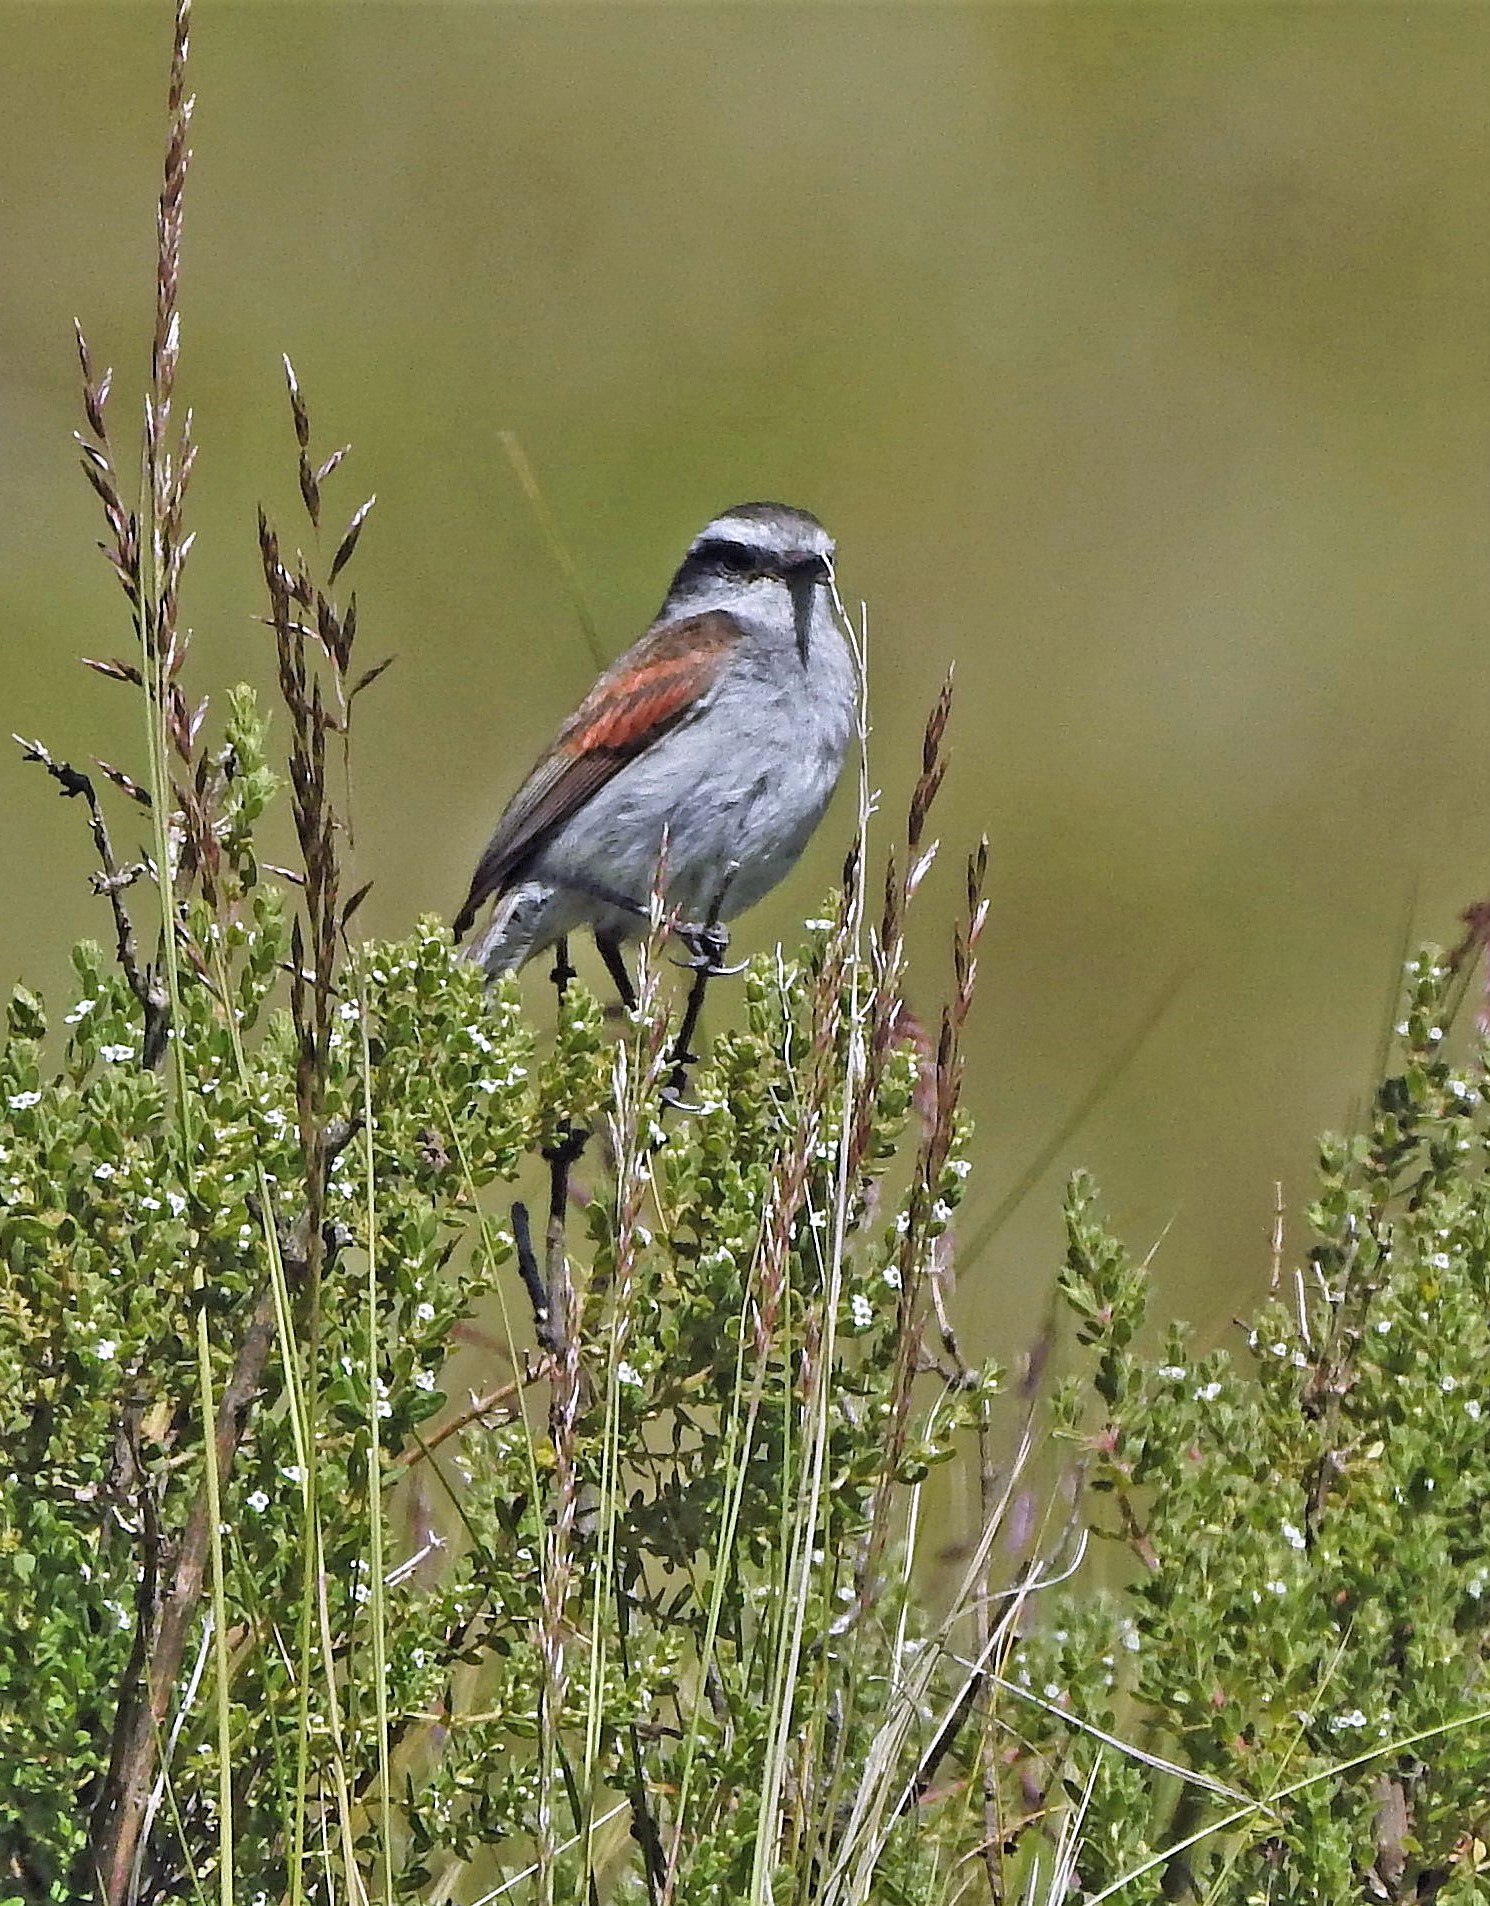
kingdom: Animalia
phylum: Chordata
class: Aves
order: Passeriformes
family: Tyrannidae
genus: Ochthoeca
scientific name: Ochthoeca leucophrys
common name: White-browed chat-tyrant
